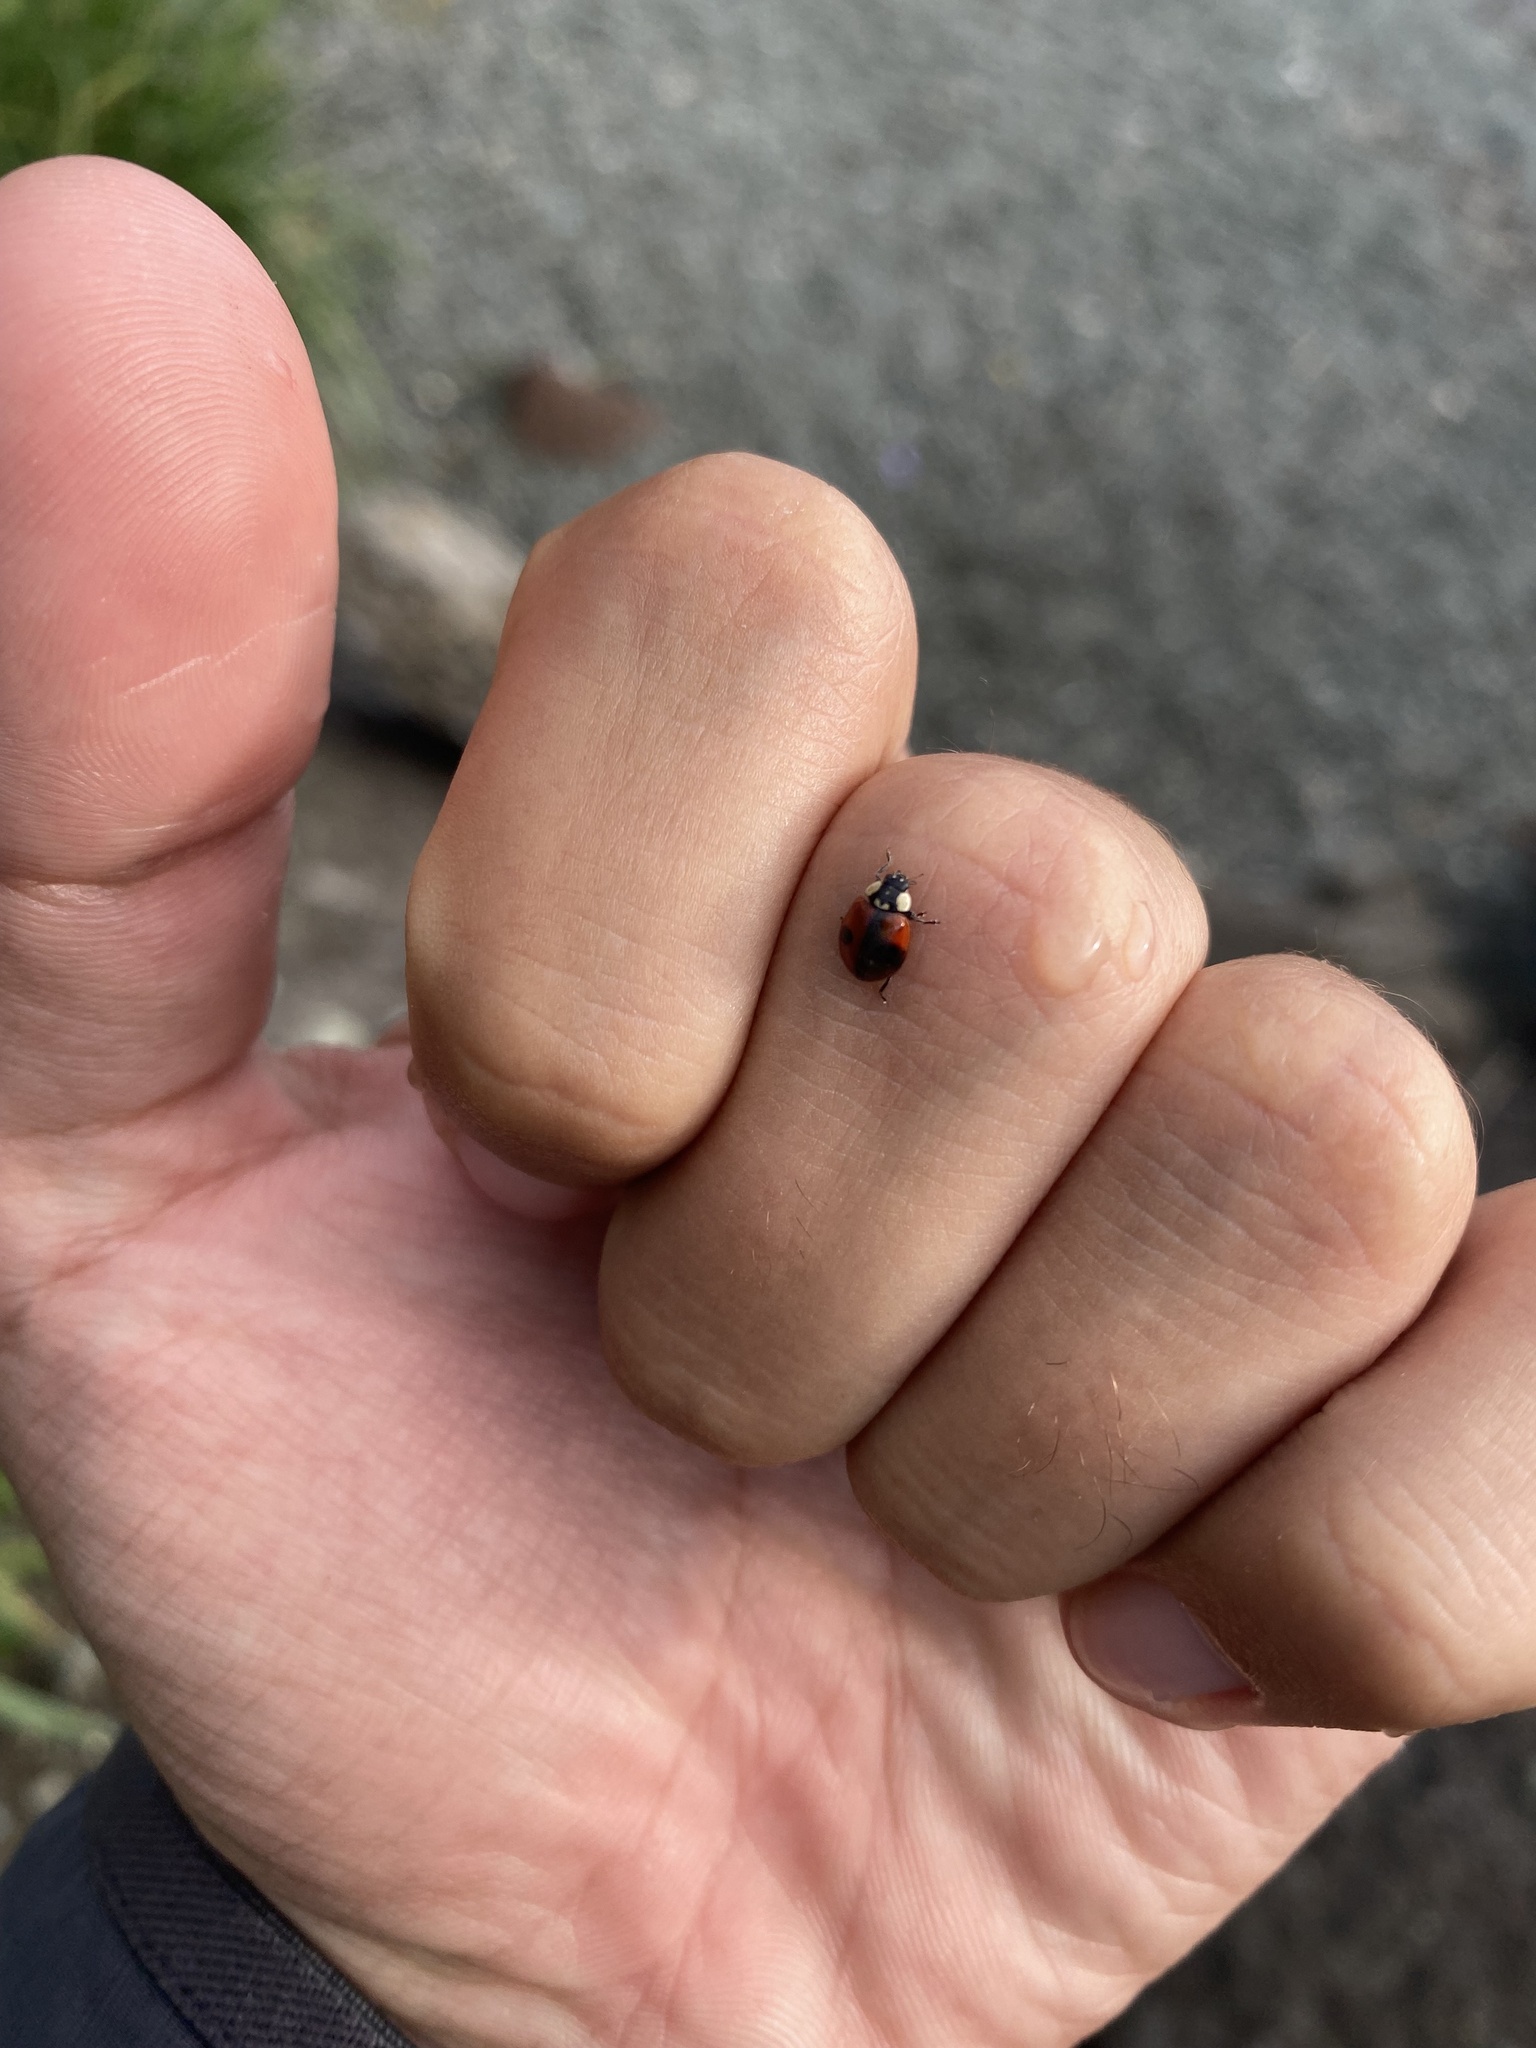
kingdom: Animalia
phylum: Arthropoda
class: Insecta
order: Coleoptera
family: Coccinellidae
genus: Adalia
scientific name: Adalia bipunctata
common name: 2-spot ladybird
